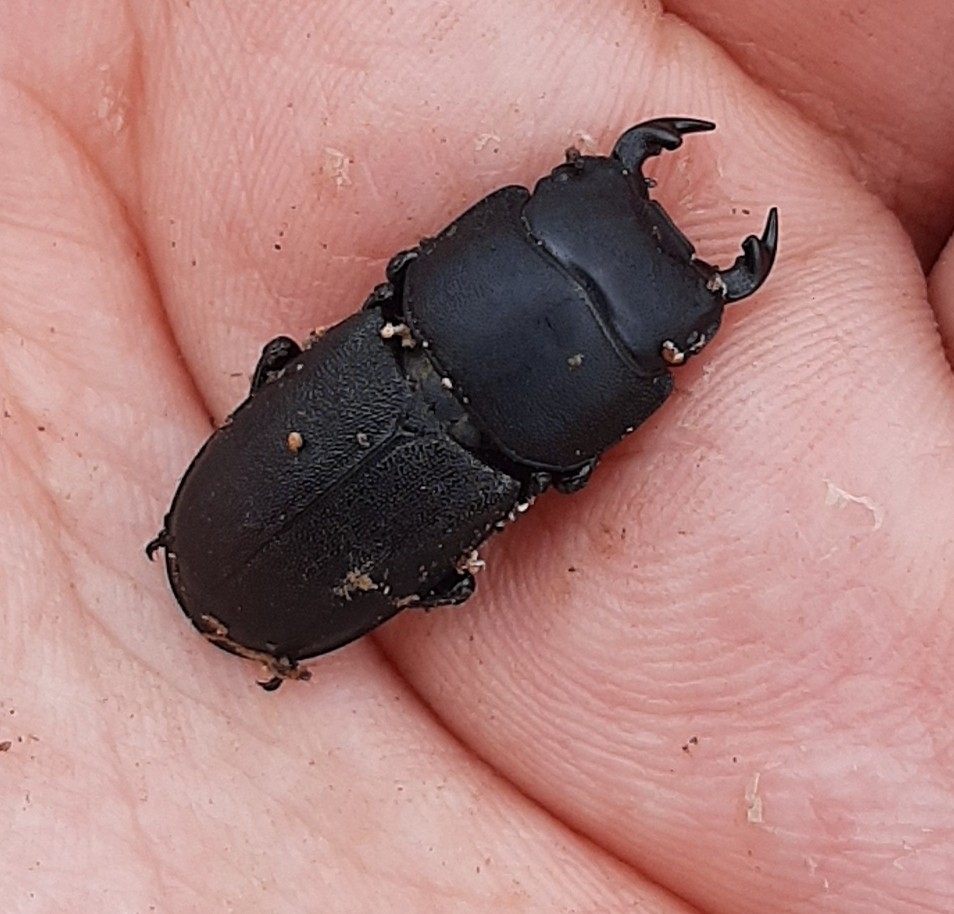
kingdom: Animalia
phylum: Arthropoda
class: Insecta
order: Coleoptera
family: Lucanidae
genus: Dorcus
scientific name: Dorcus parallelipipedus
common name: Lesser stag beetle
